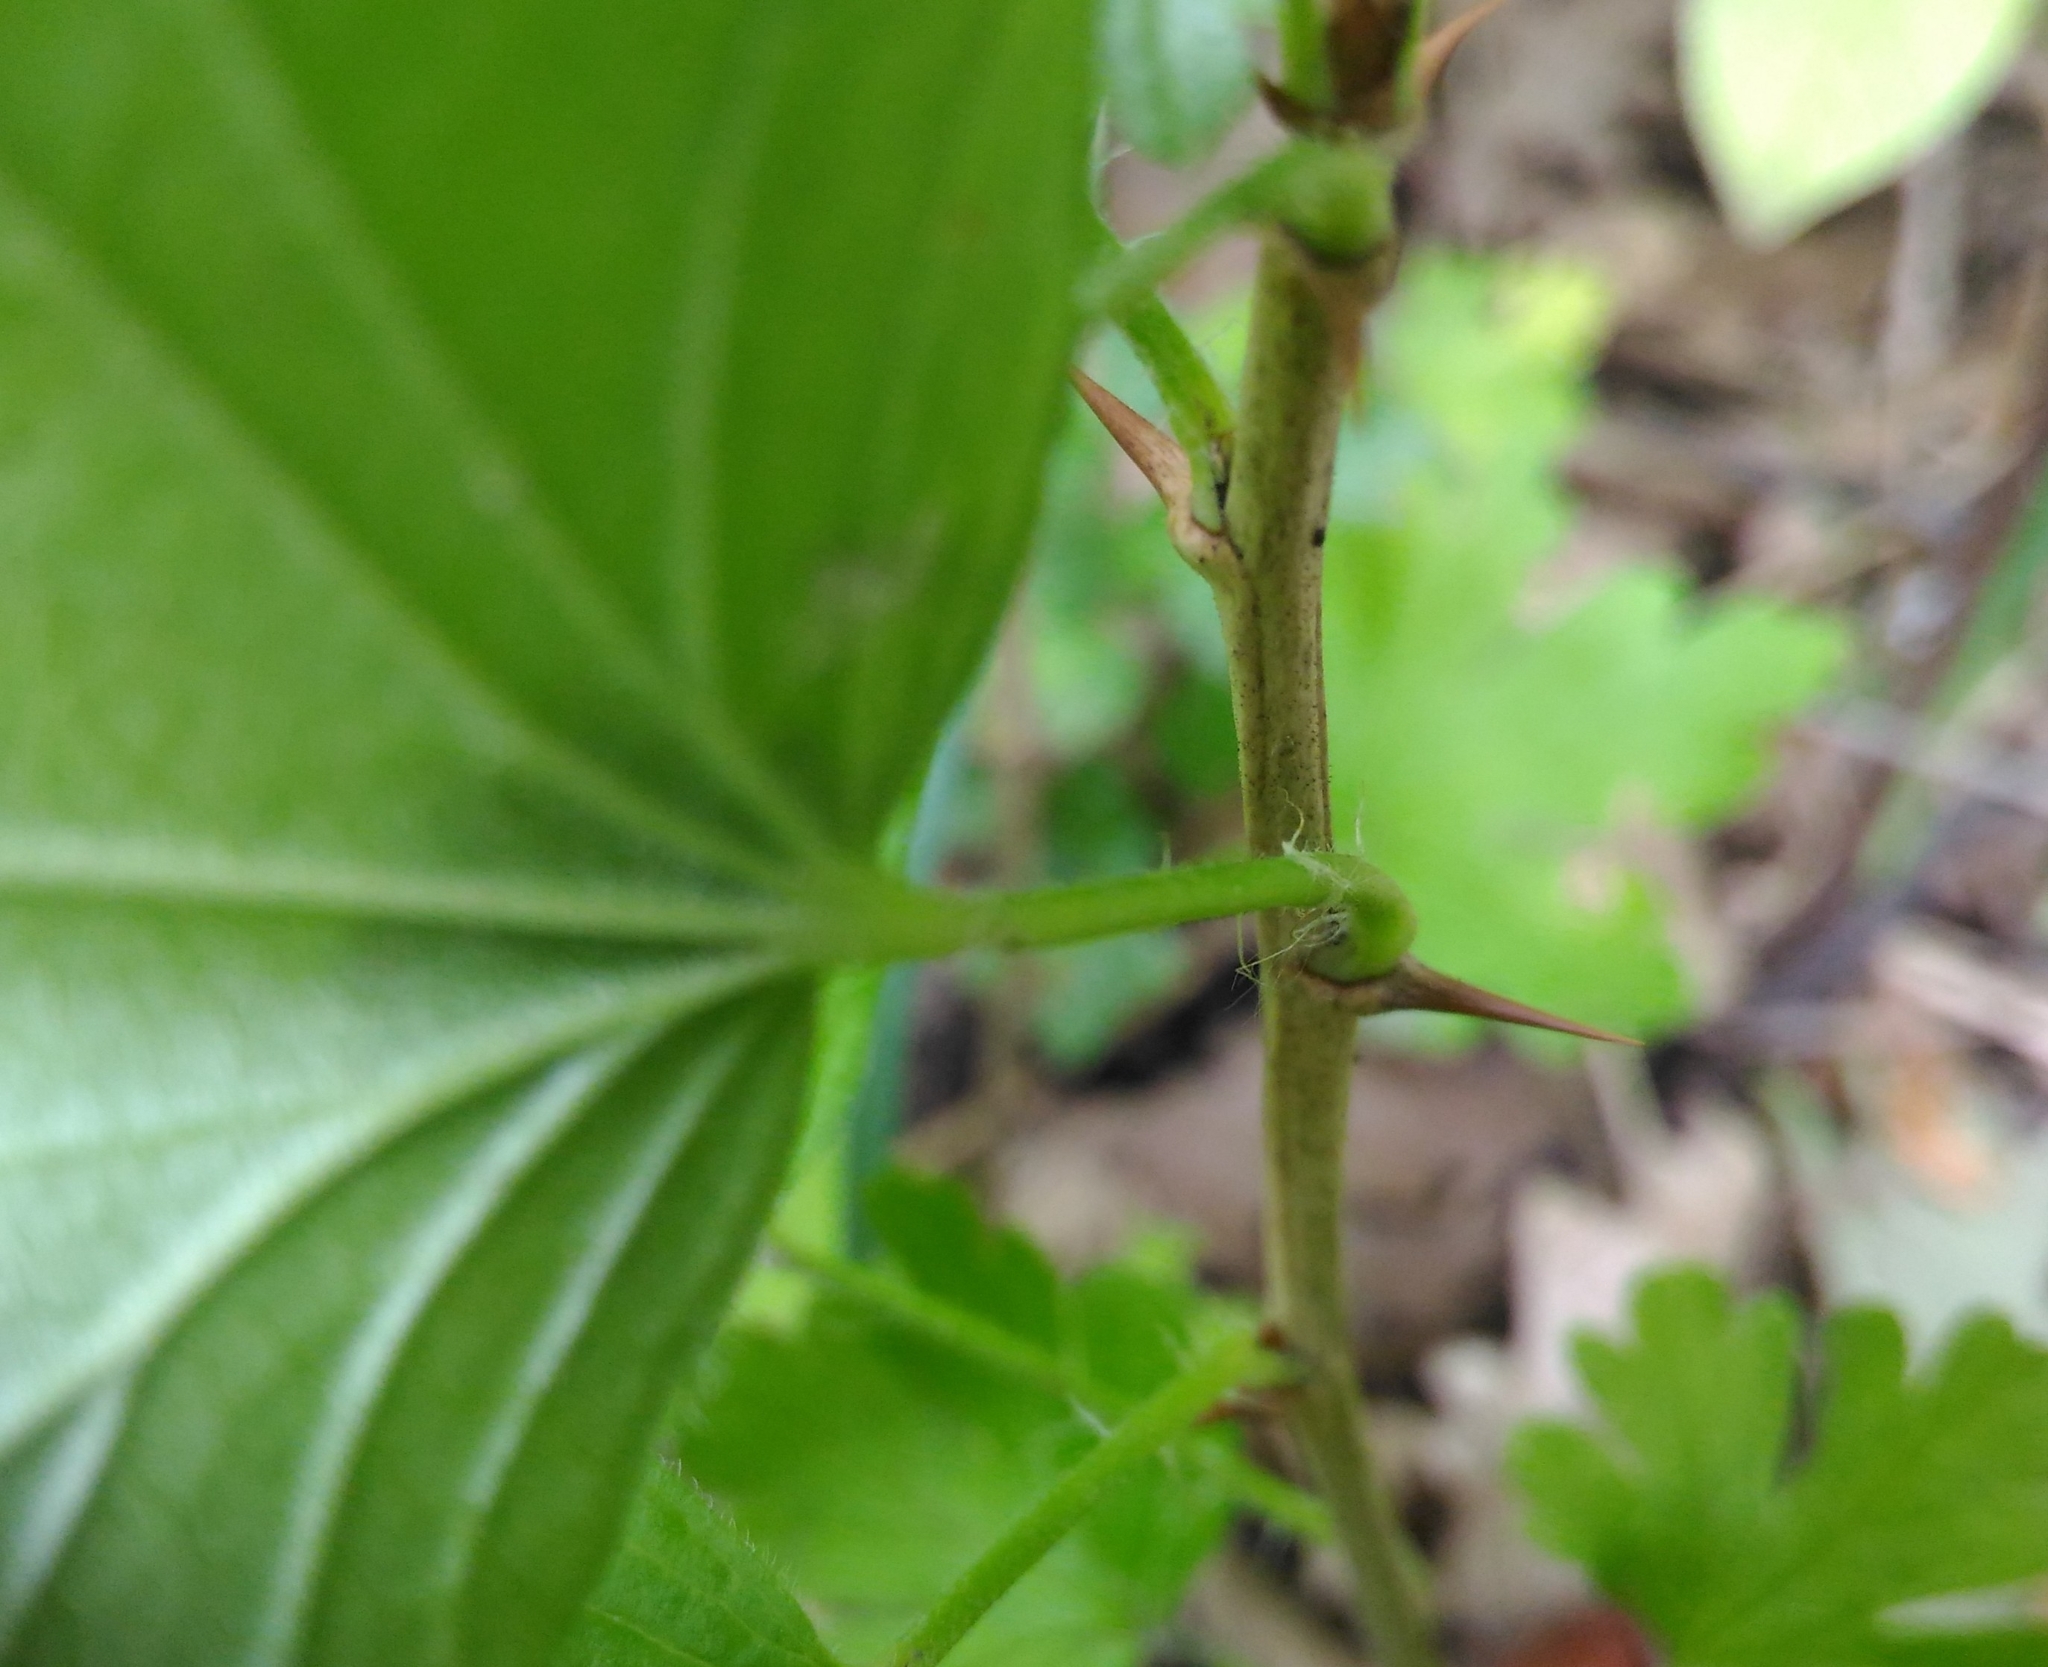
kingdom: Plantae
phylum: Tracheophyta
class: Magnoliopsida
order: Saxifragales
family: Grossulariaceae
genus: Ribes
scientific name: Ribes uva-crispa
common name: Gooseberry
